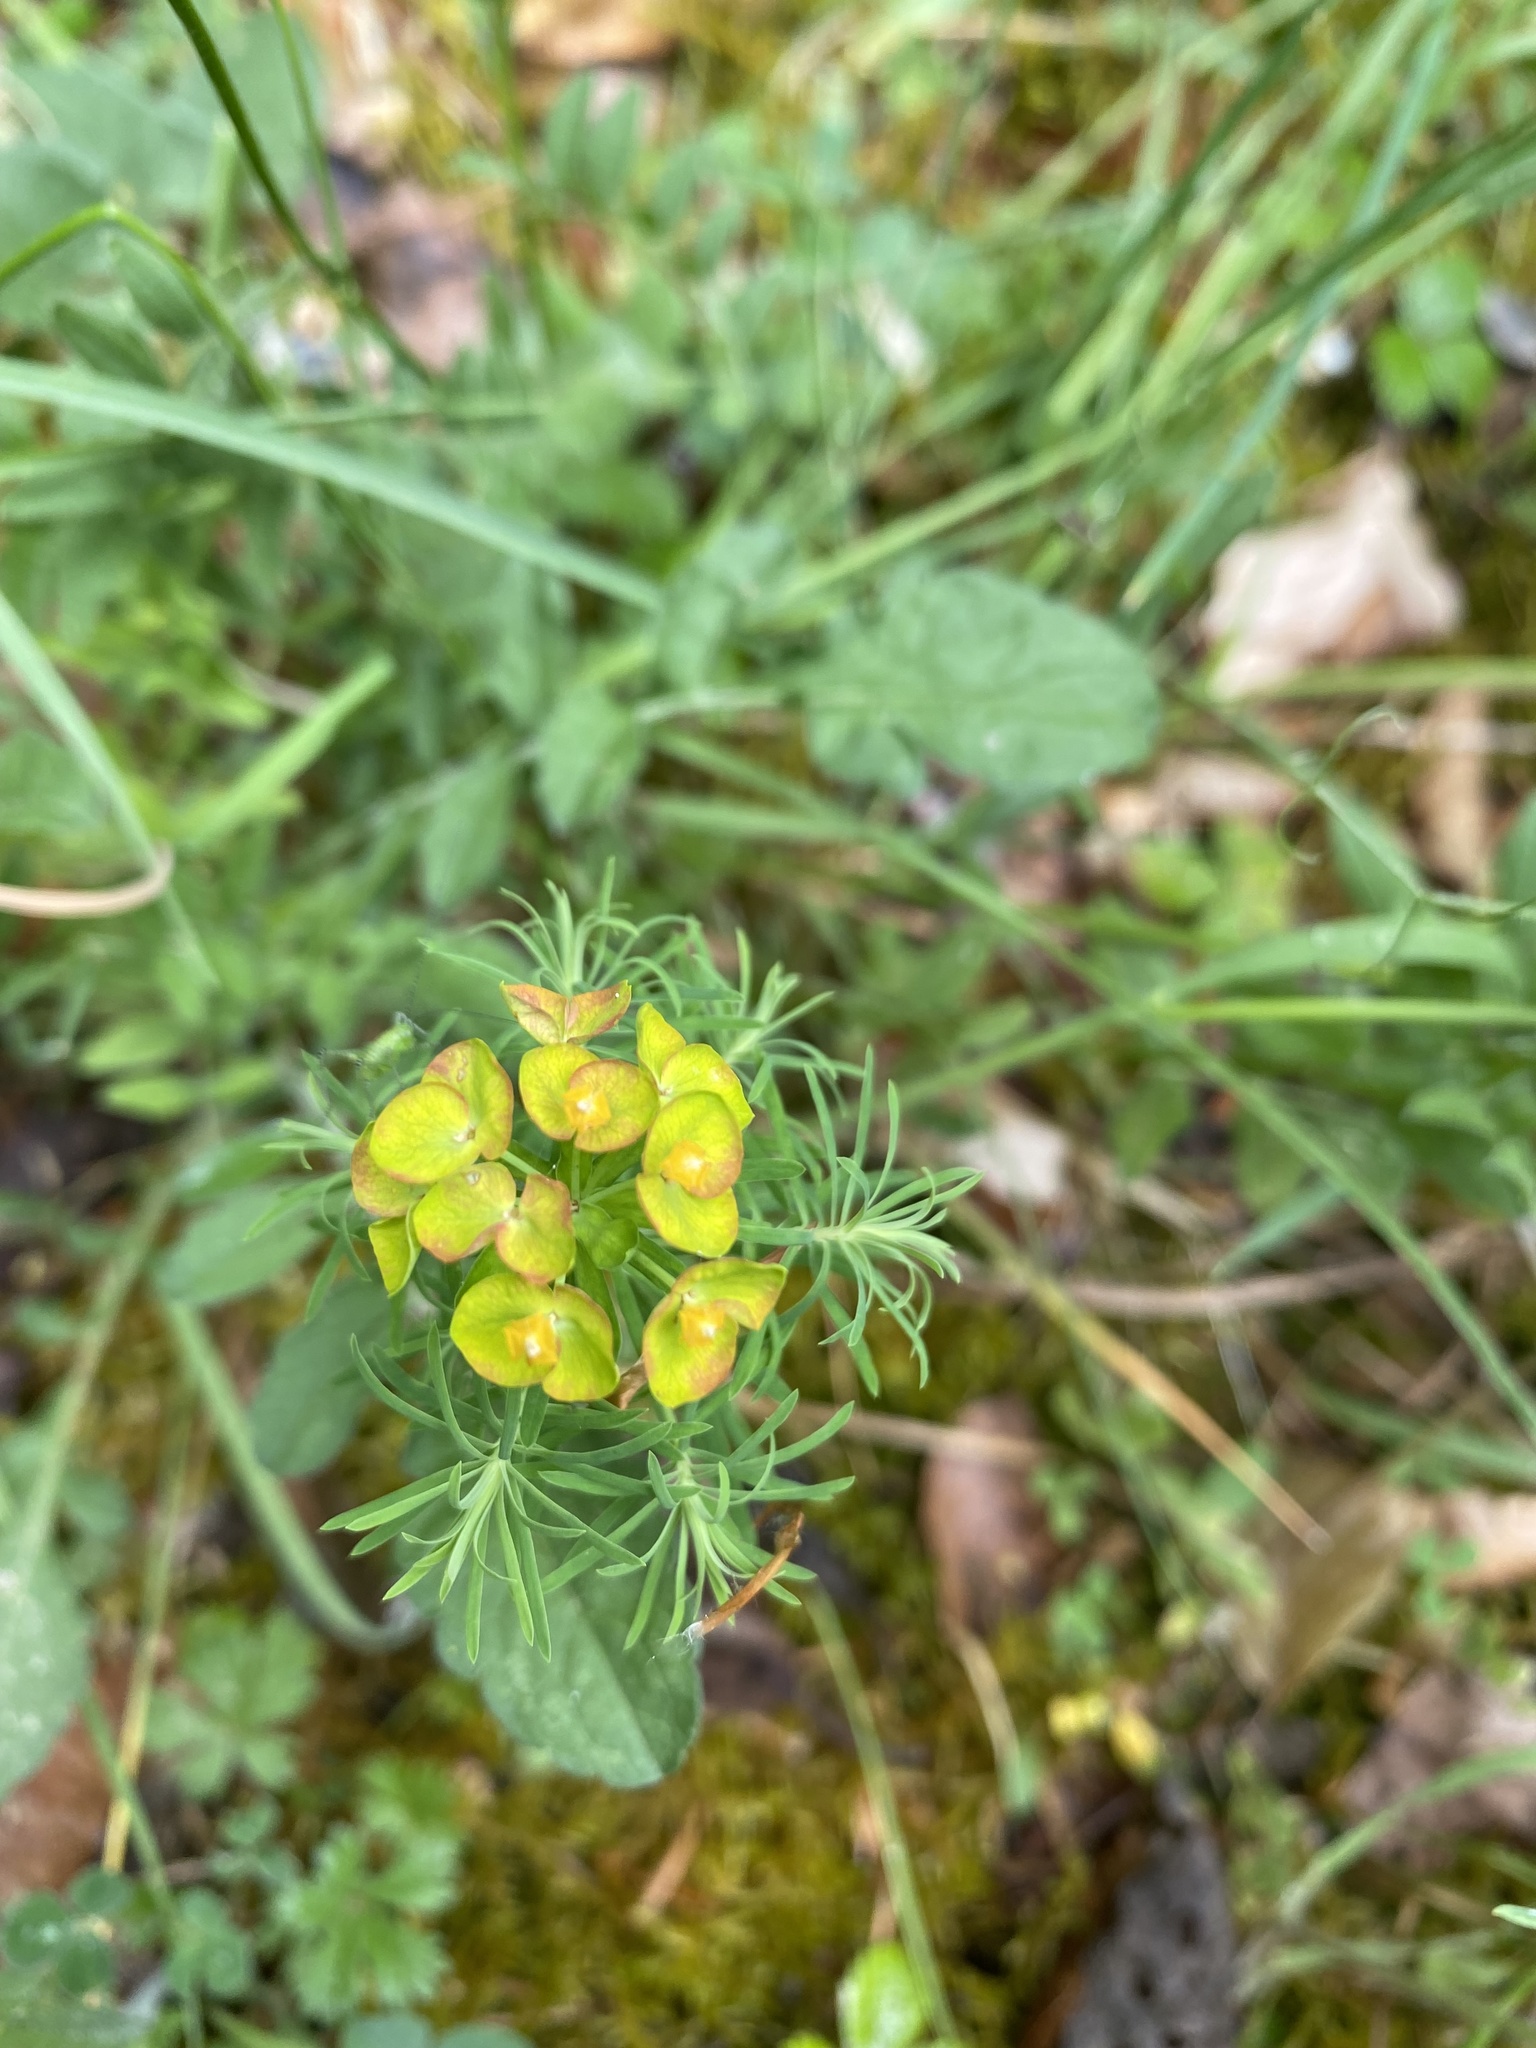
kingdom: Plantae
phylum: Tracheophyta
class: Magnoliopsida
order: Malpighiales
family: Euphorbiaceae
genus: Euphorbia
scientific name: Euphorbia cyparissias
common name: Cypress spurge
